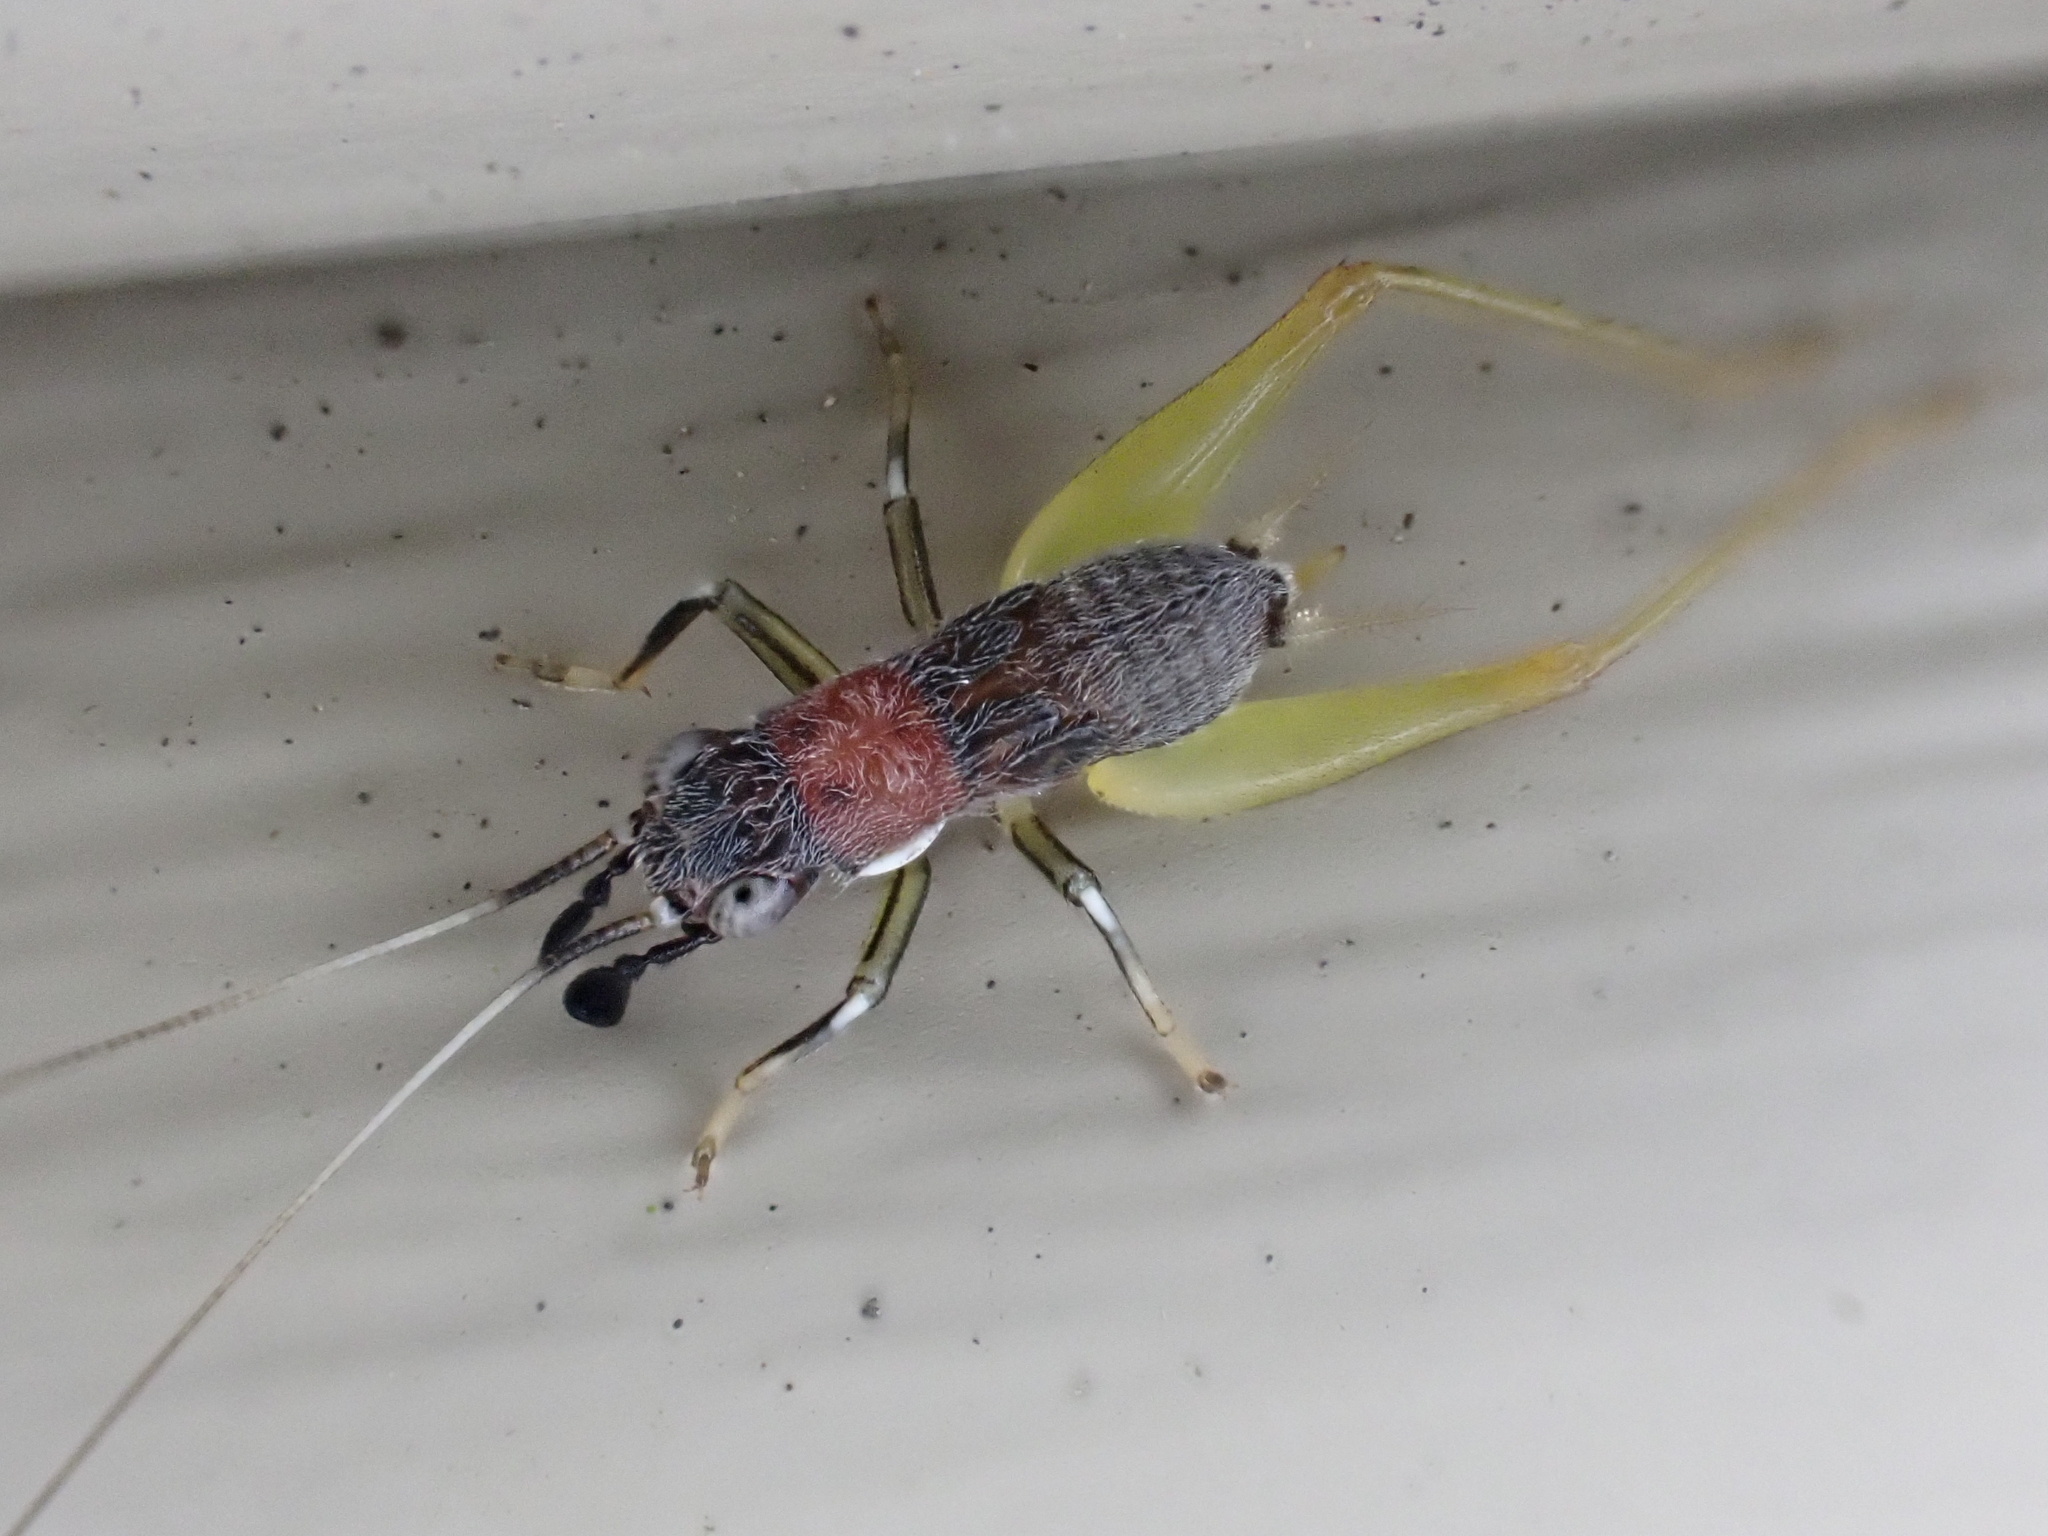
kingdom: Animalia
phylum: Arthropoda
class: Insecta
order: Orthoptera
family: Trigonidiidae
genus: Phyllopalpus
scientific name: Phyllopalpus pulchellus
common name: Handsome trig
